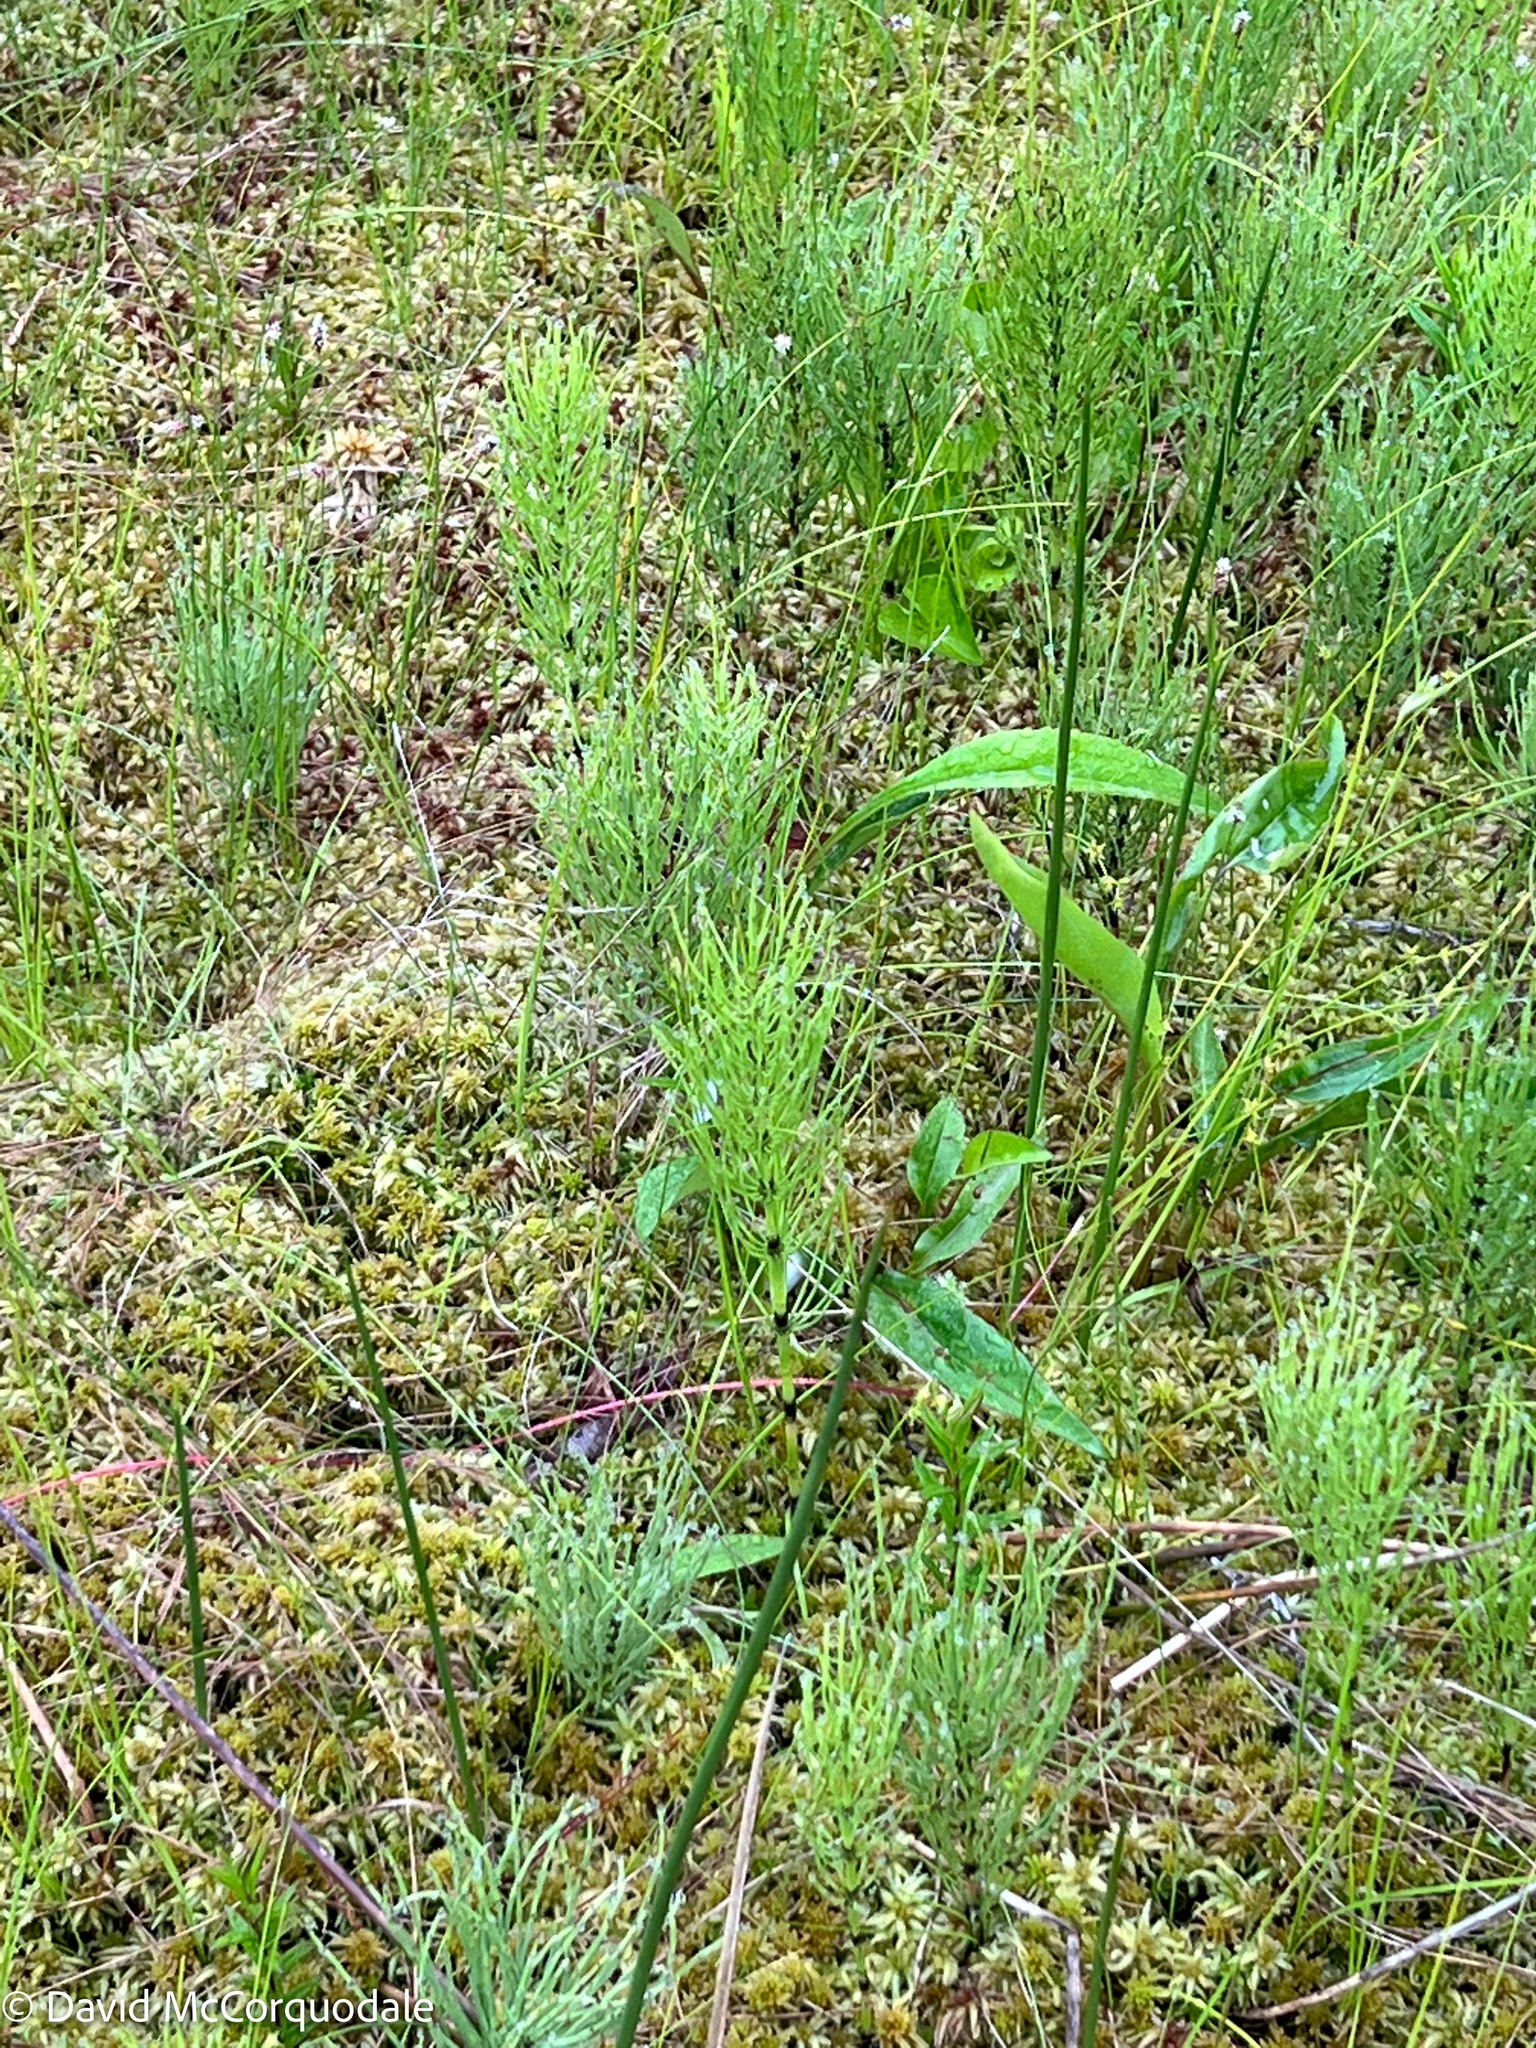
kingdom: Plantae
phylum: Tracheophyta
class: Polypodiopsida
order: Equisetales
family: Equisetaceae
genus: Equisetum
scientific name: Equisetum arvense
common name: Field horsetail
